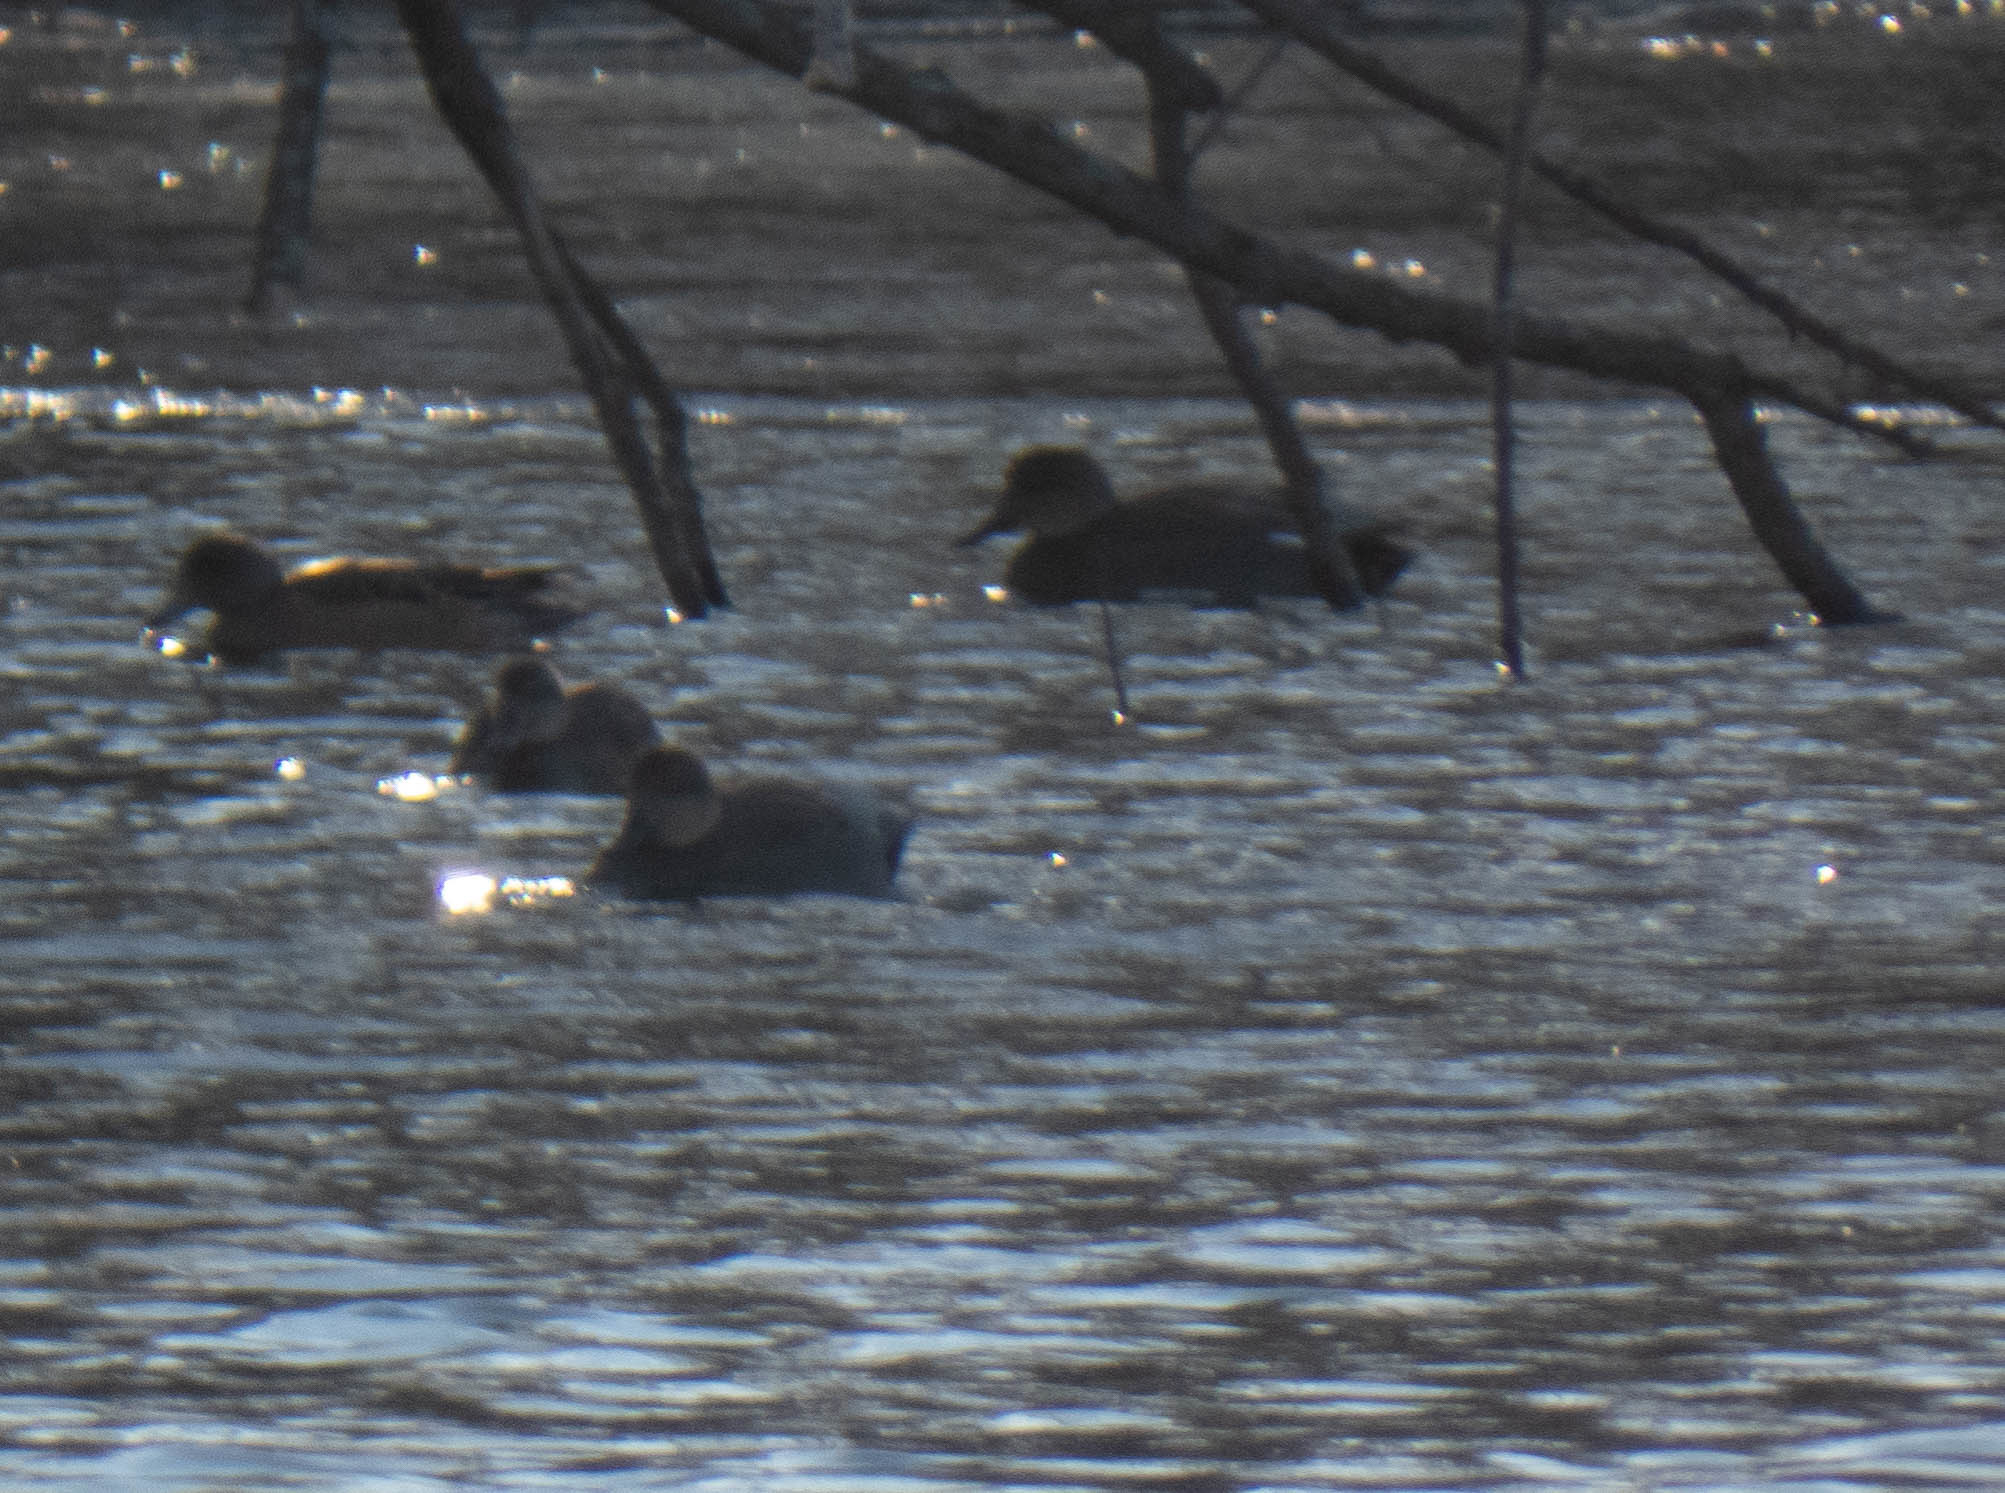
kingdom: Animalia
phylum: Chordata
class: Aves
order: Anseriformes
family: Anatidae
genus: Mareca
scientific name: Mareca strepera
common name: Gadwall
